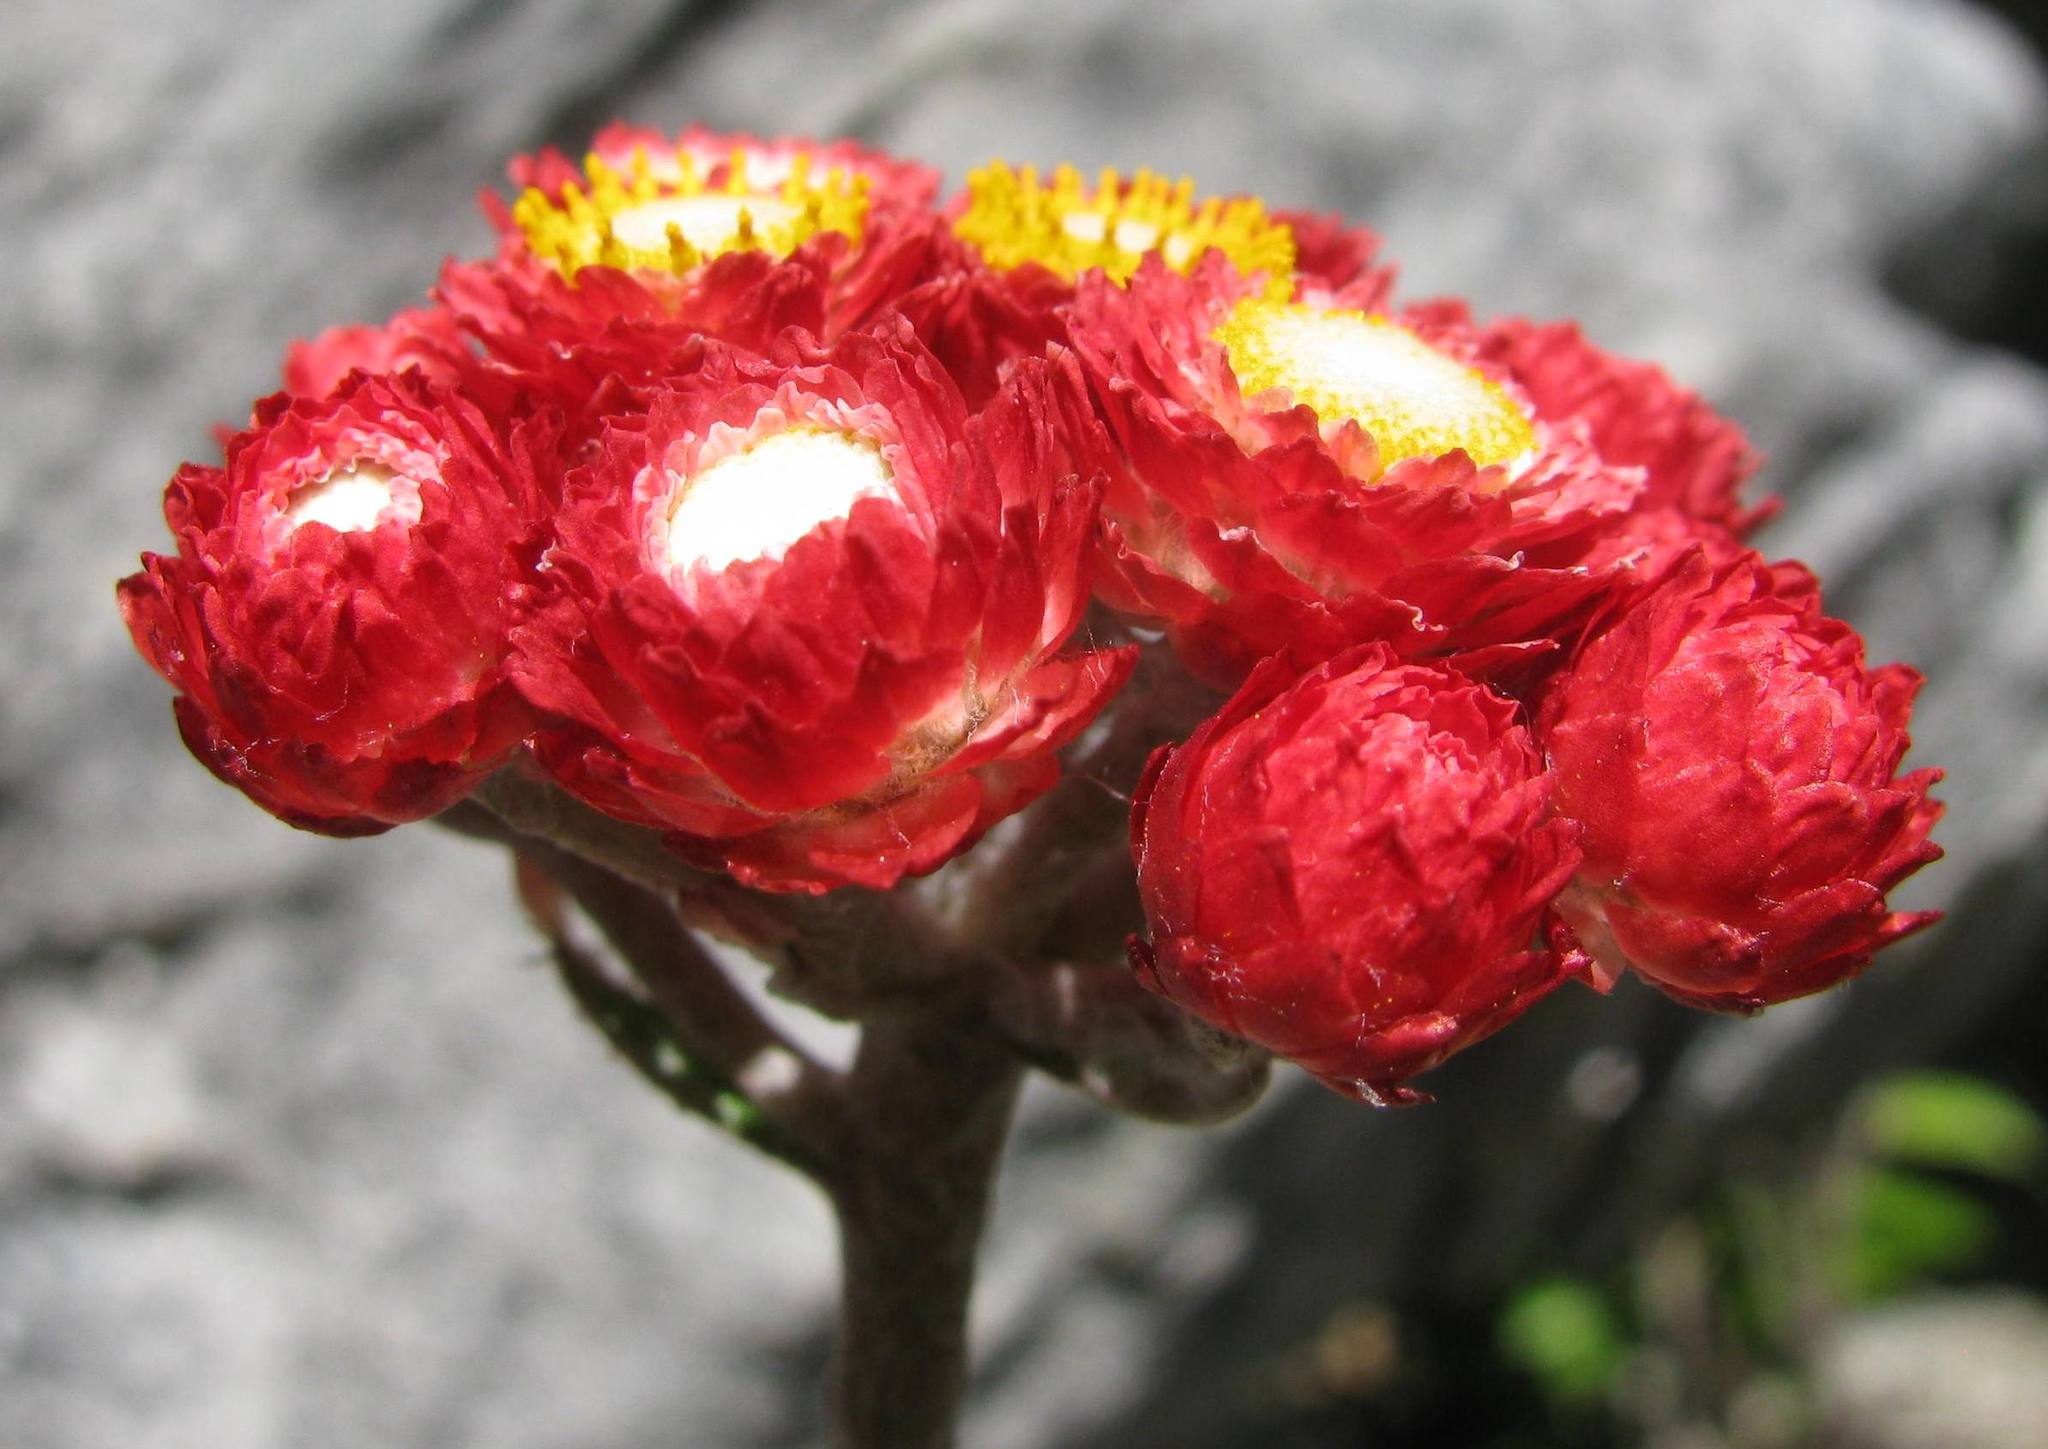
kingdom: Plantae
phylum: Tracheophyta
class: Magnoliopsida
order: Asterales
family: Asteraceae
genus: Helichrysum
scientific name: Helichrysum felinum
